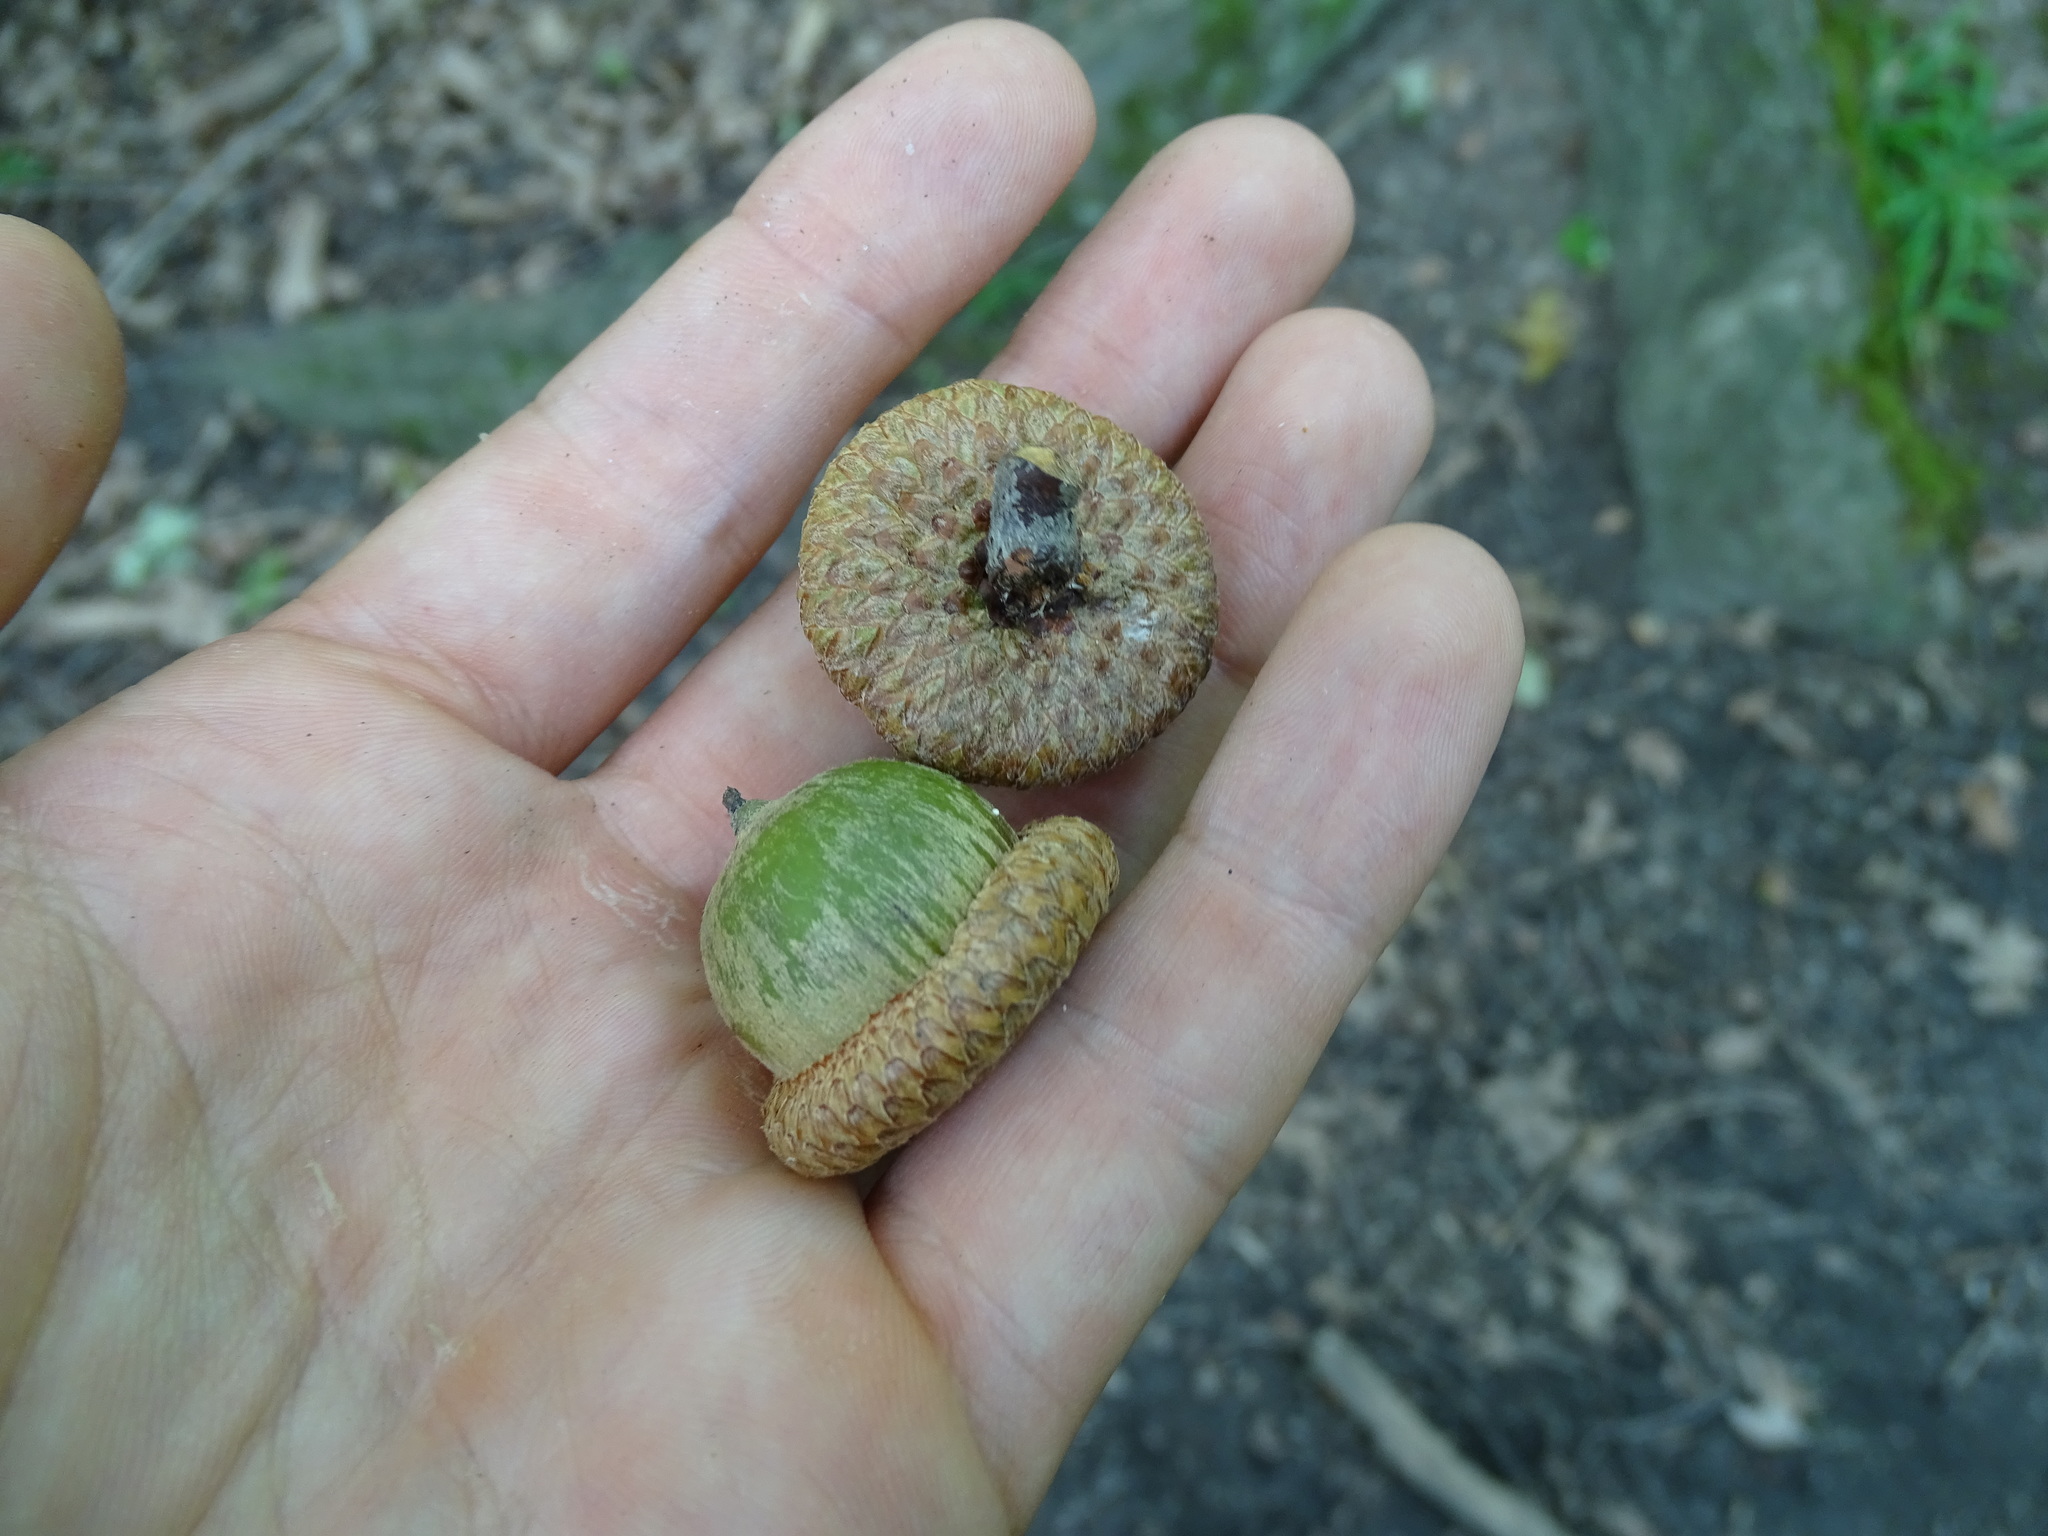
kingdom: Plantae
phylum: Tracheophyta
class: Magnoliopsida
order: Fagales
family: Fagaceae
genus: Quercus
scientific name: Quercus rubra
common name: Red oak
